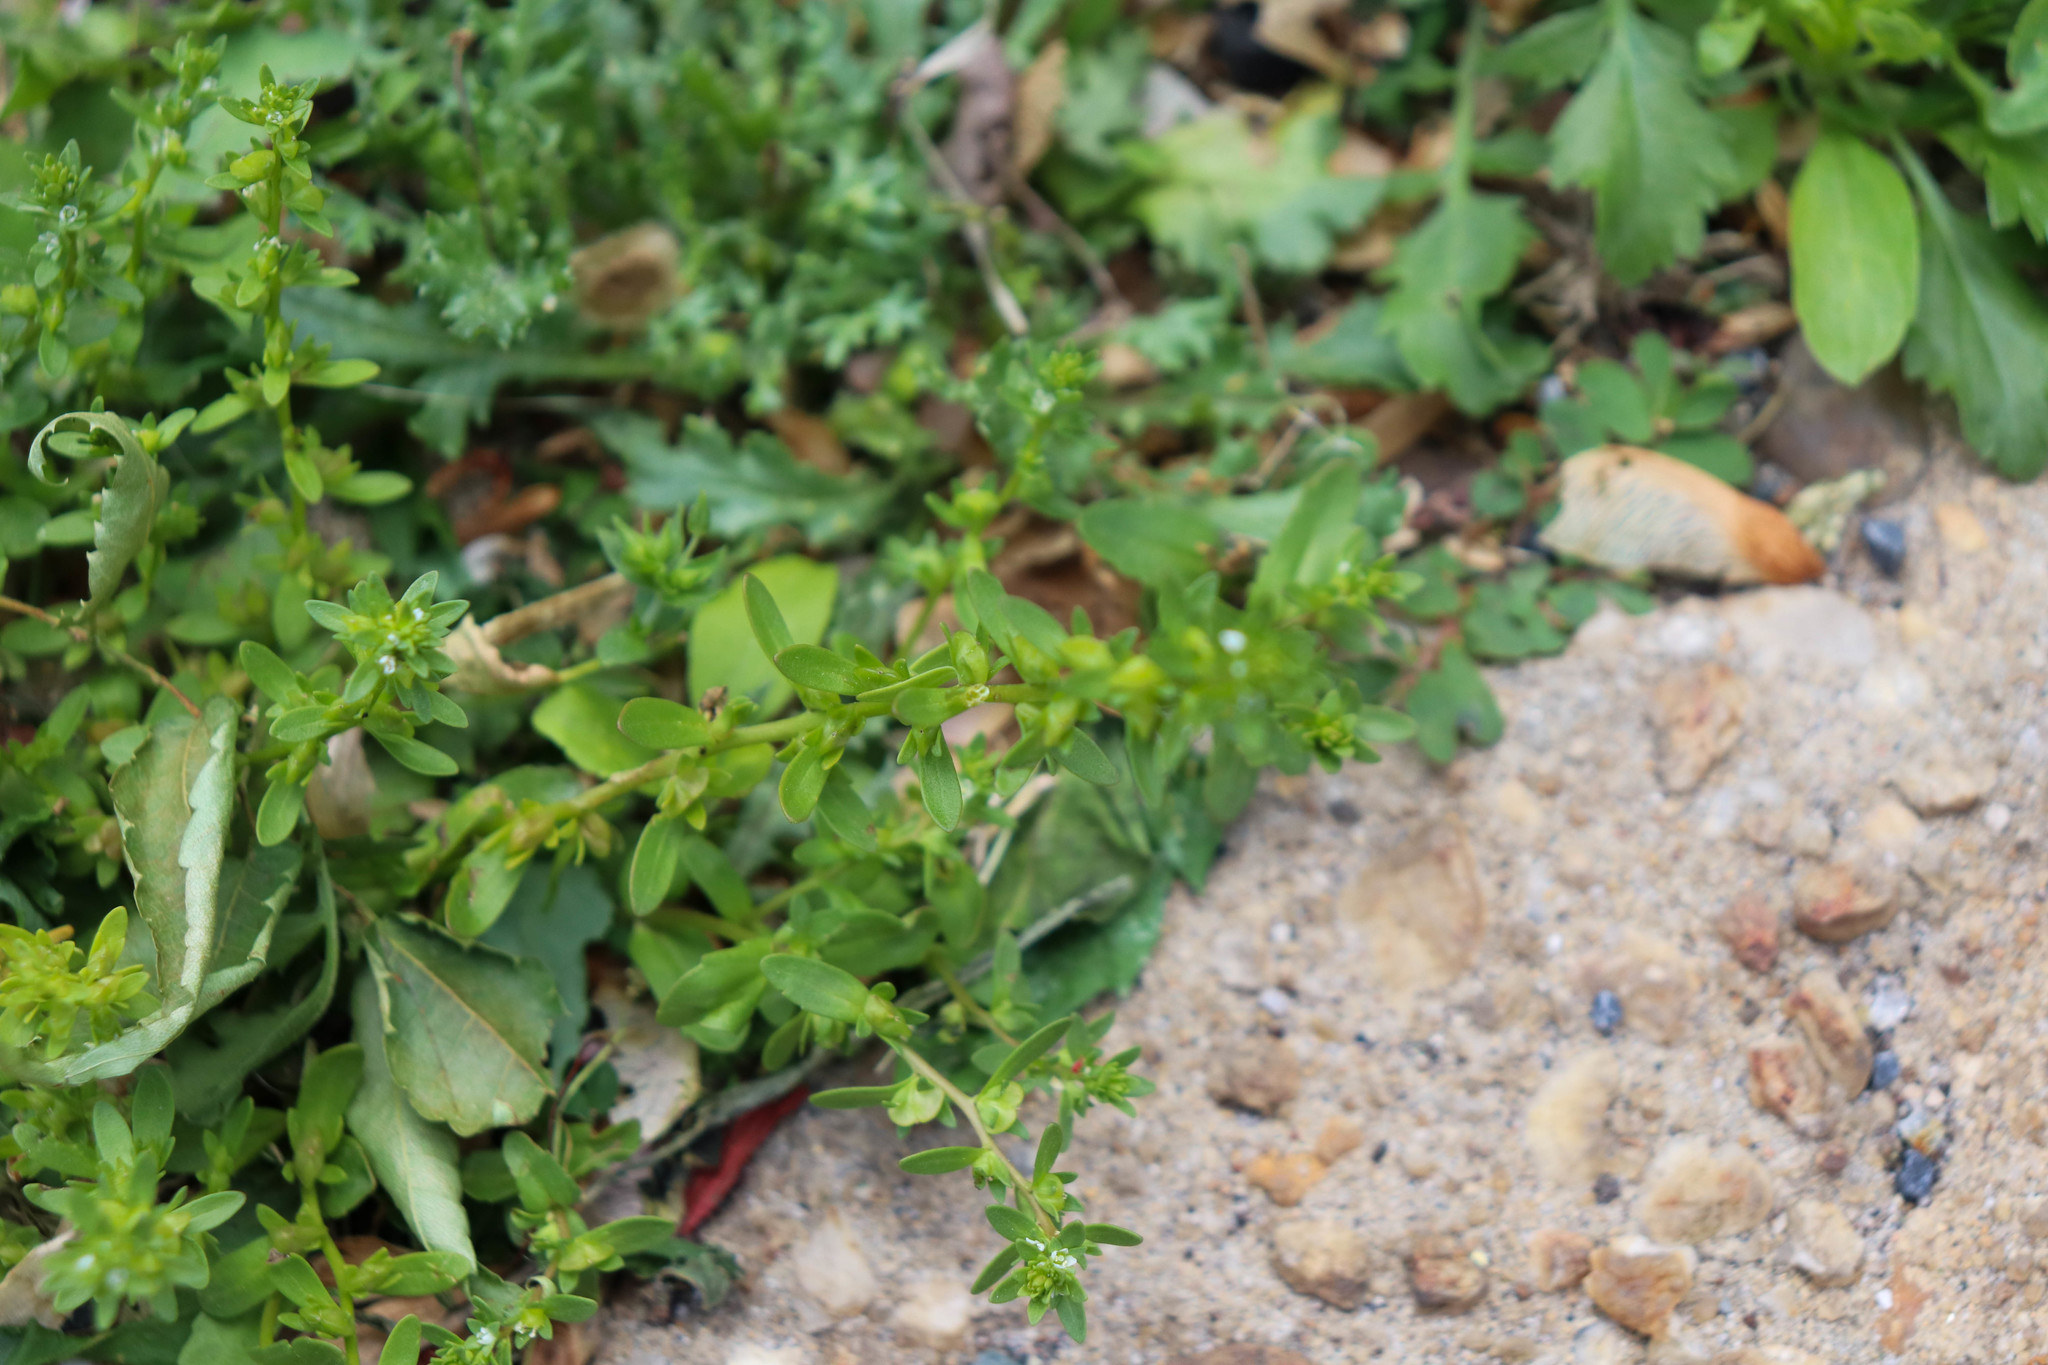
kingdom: Plantae
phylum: Tracheophyta
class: Magnoliopsida
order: Lamiales
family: Plantaginaceae
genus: Veronica
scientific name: Veronica peregrina
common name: Neckweed
